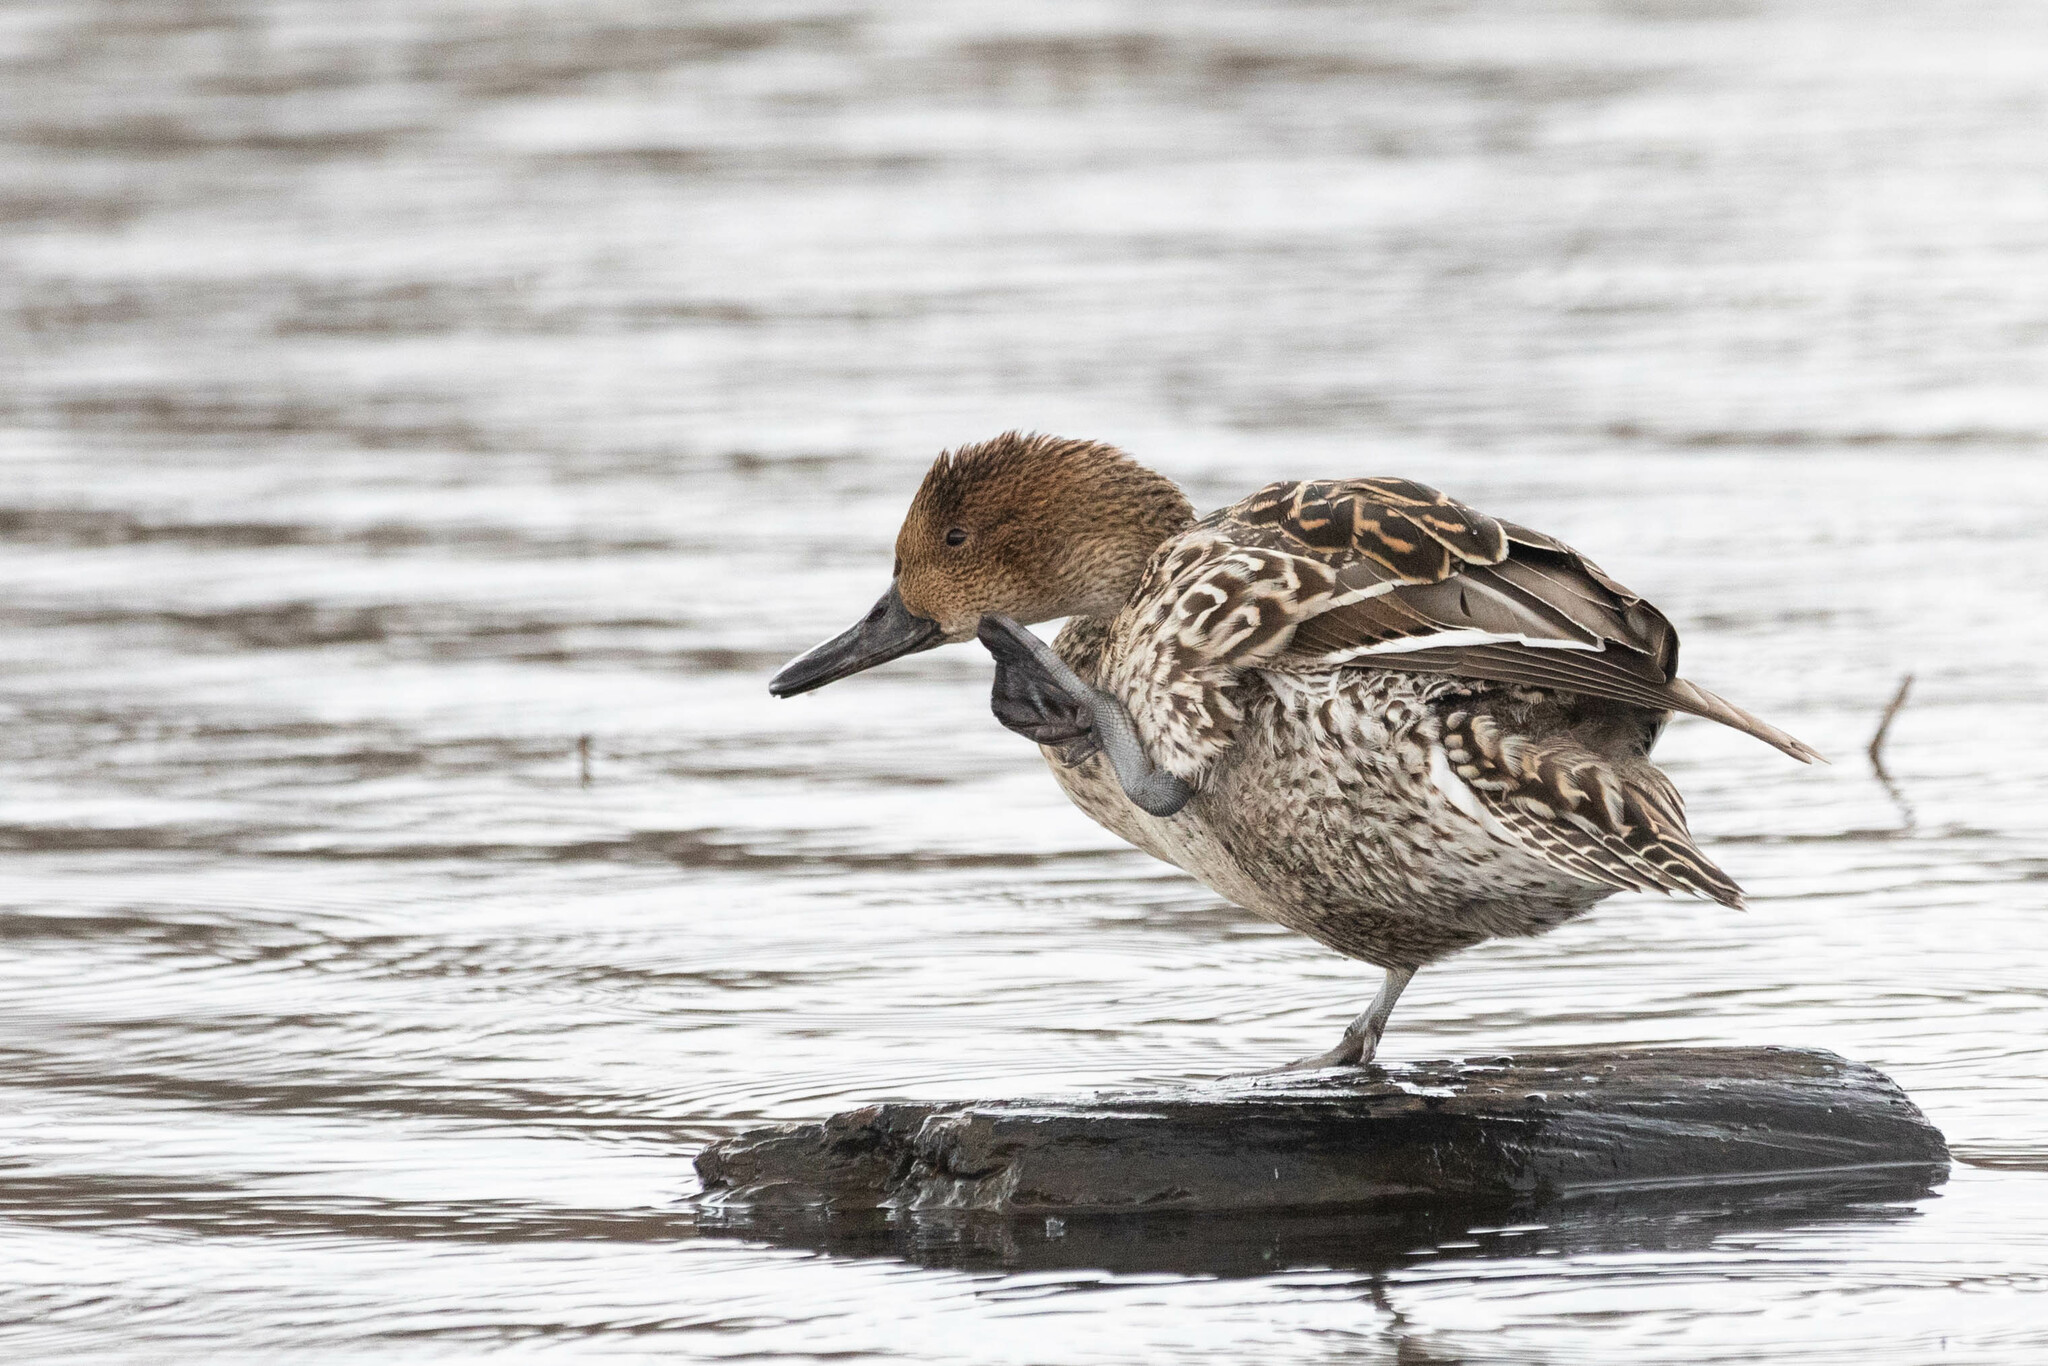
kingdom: Animalia
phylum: Chordata
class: Aves
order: Anseriformes
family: Anatidae
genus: Anas
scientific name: Anas acuta
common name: Northern pintail
